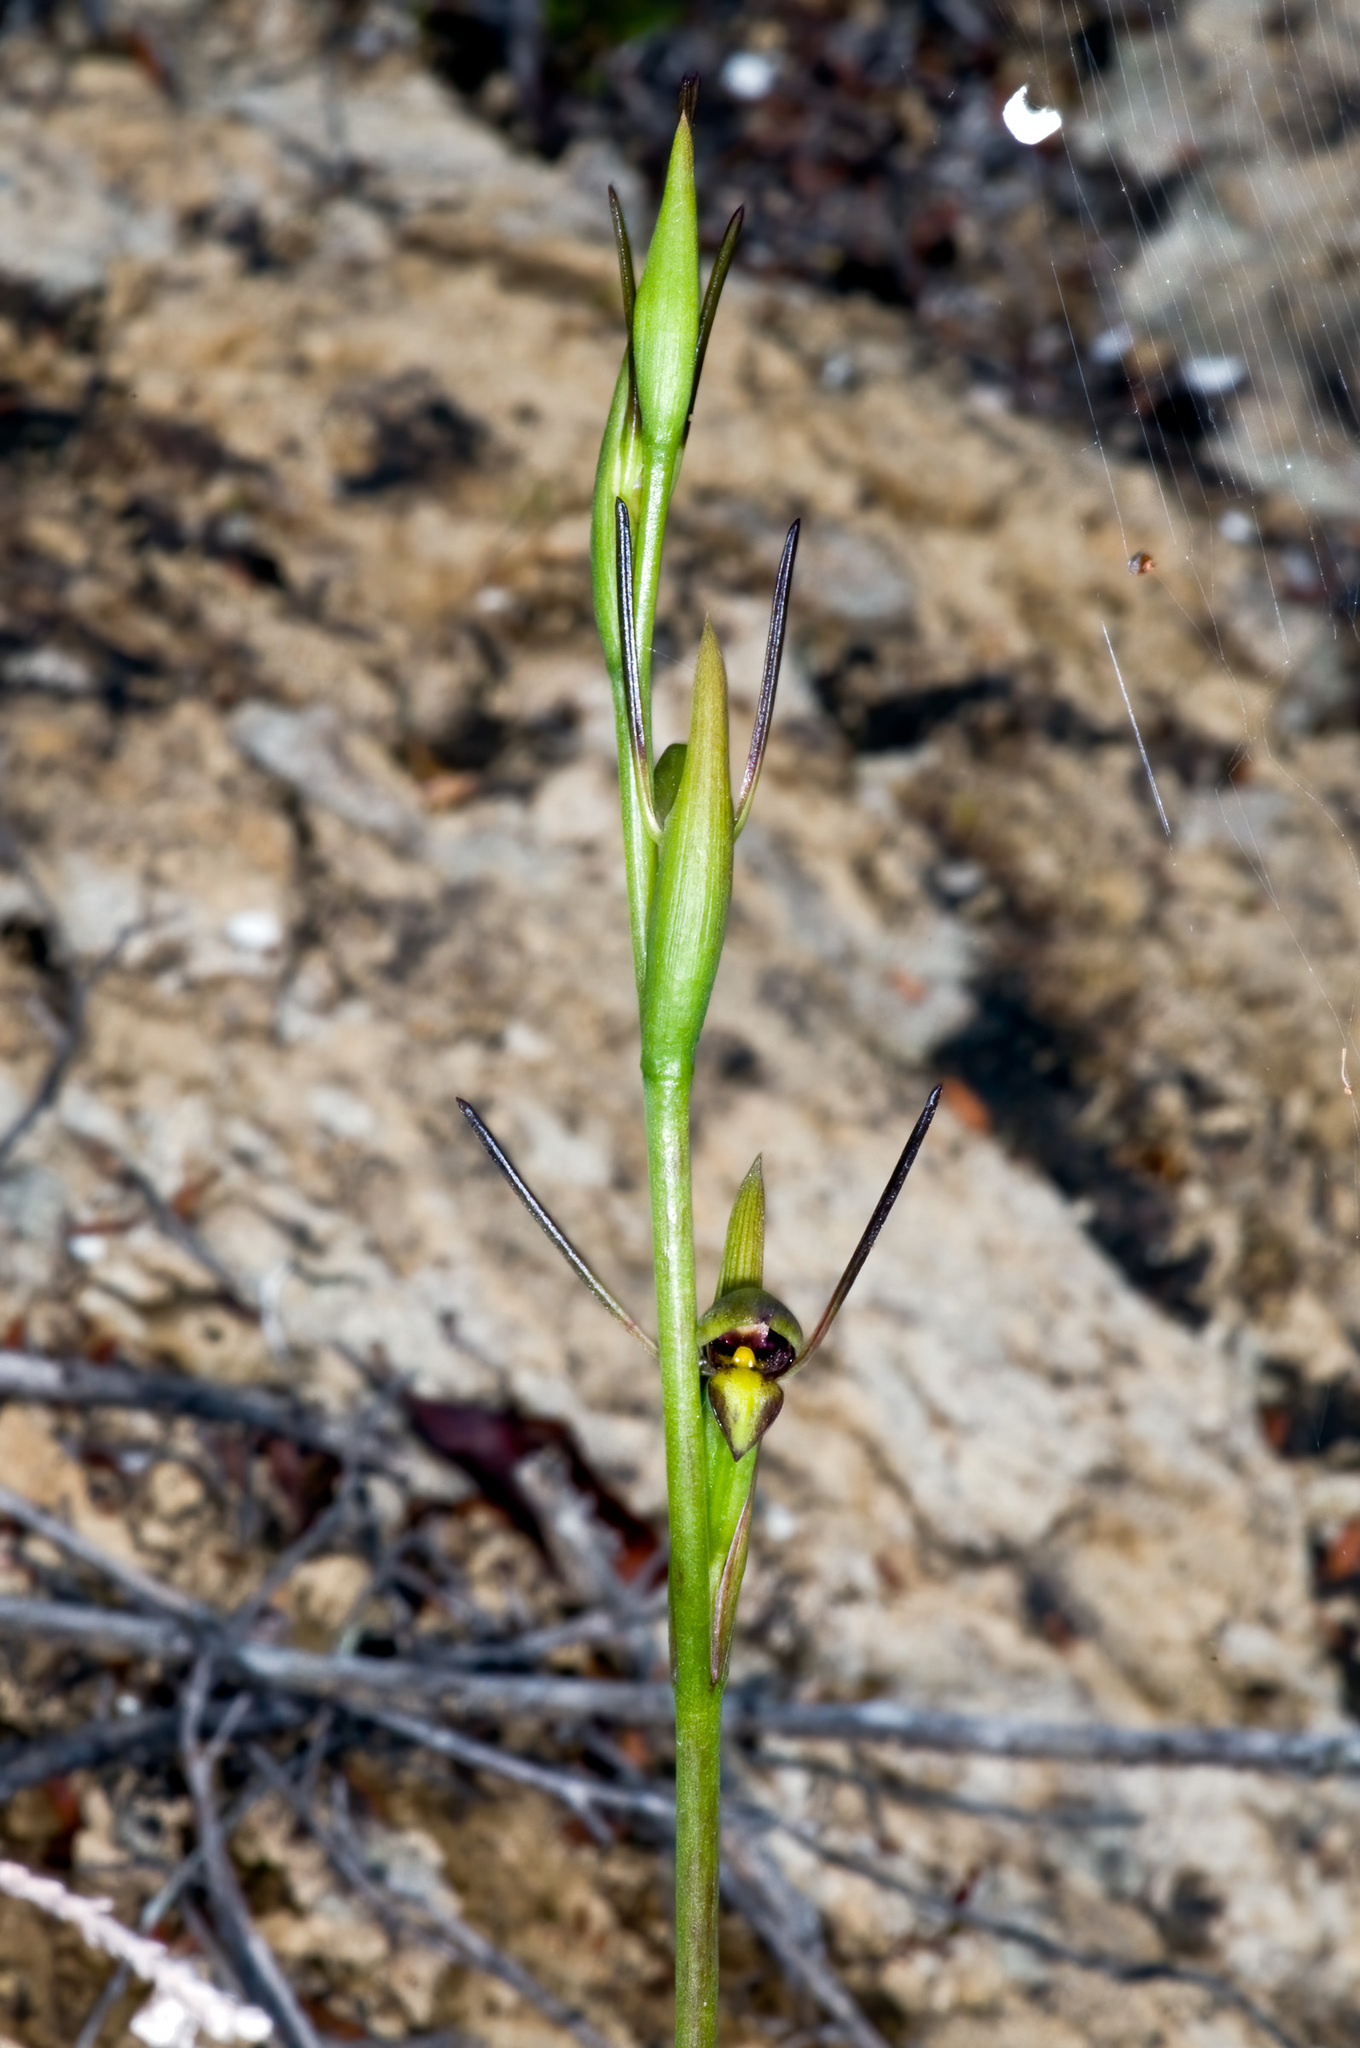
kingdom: Plantae
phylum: Tracheophyta
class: Liliopsida
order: Asparagales
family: Orchidaceae
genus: Orthoceras
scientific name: Orthoceras novae-zeelandiae
